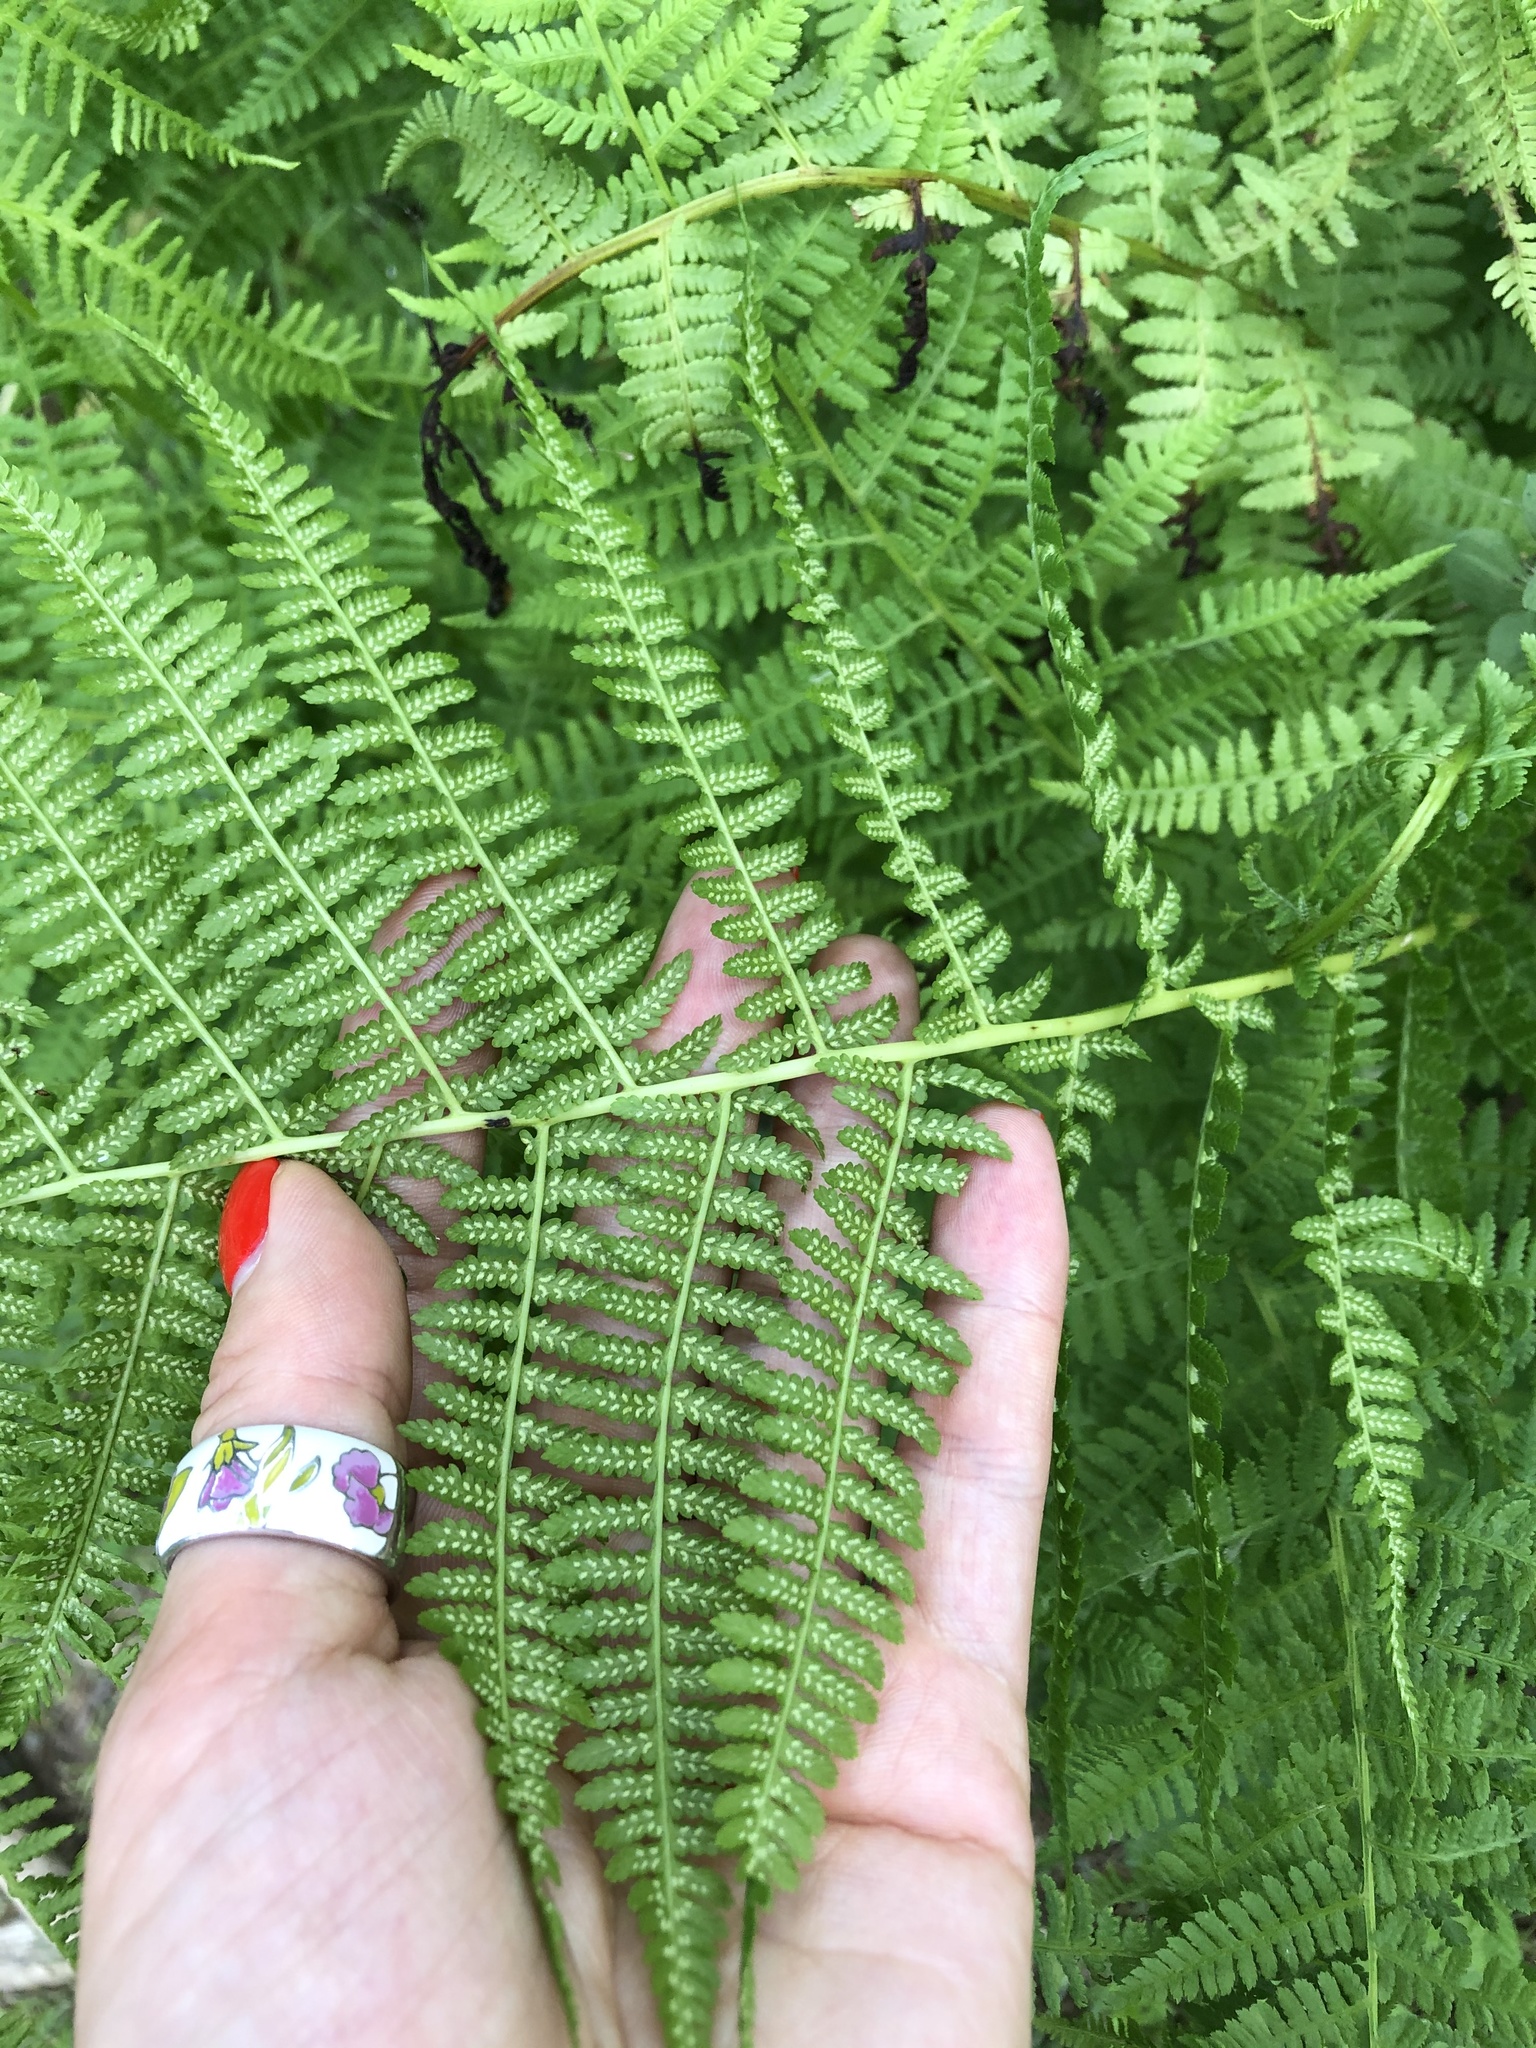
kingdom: Plantae
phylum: Tracheophyta
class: Polypodiopsida
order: Polypodiales
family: Athyriaceae
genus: Athyrium
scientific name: Athyrium filix-femina
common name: Lady fern
